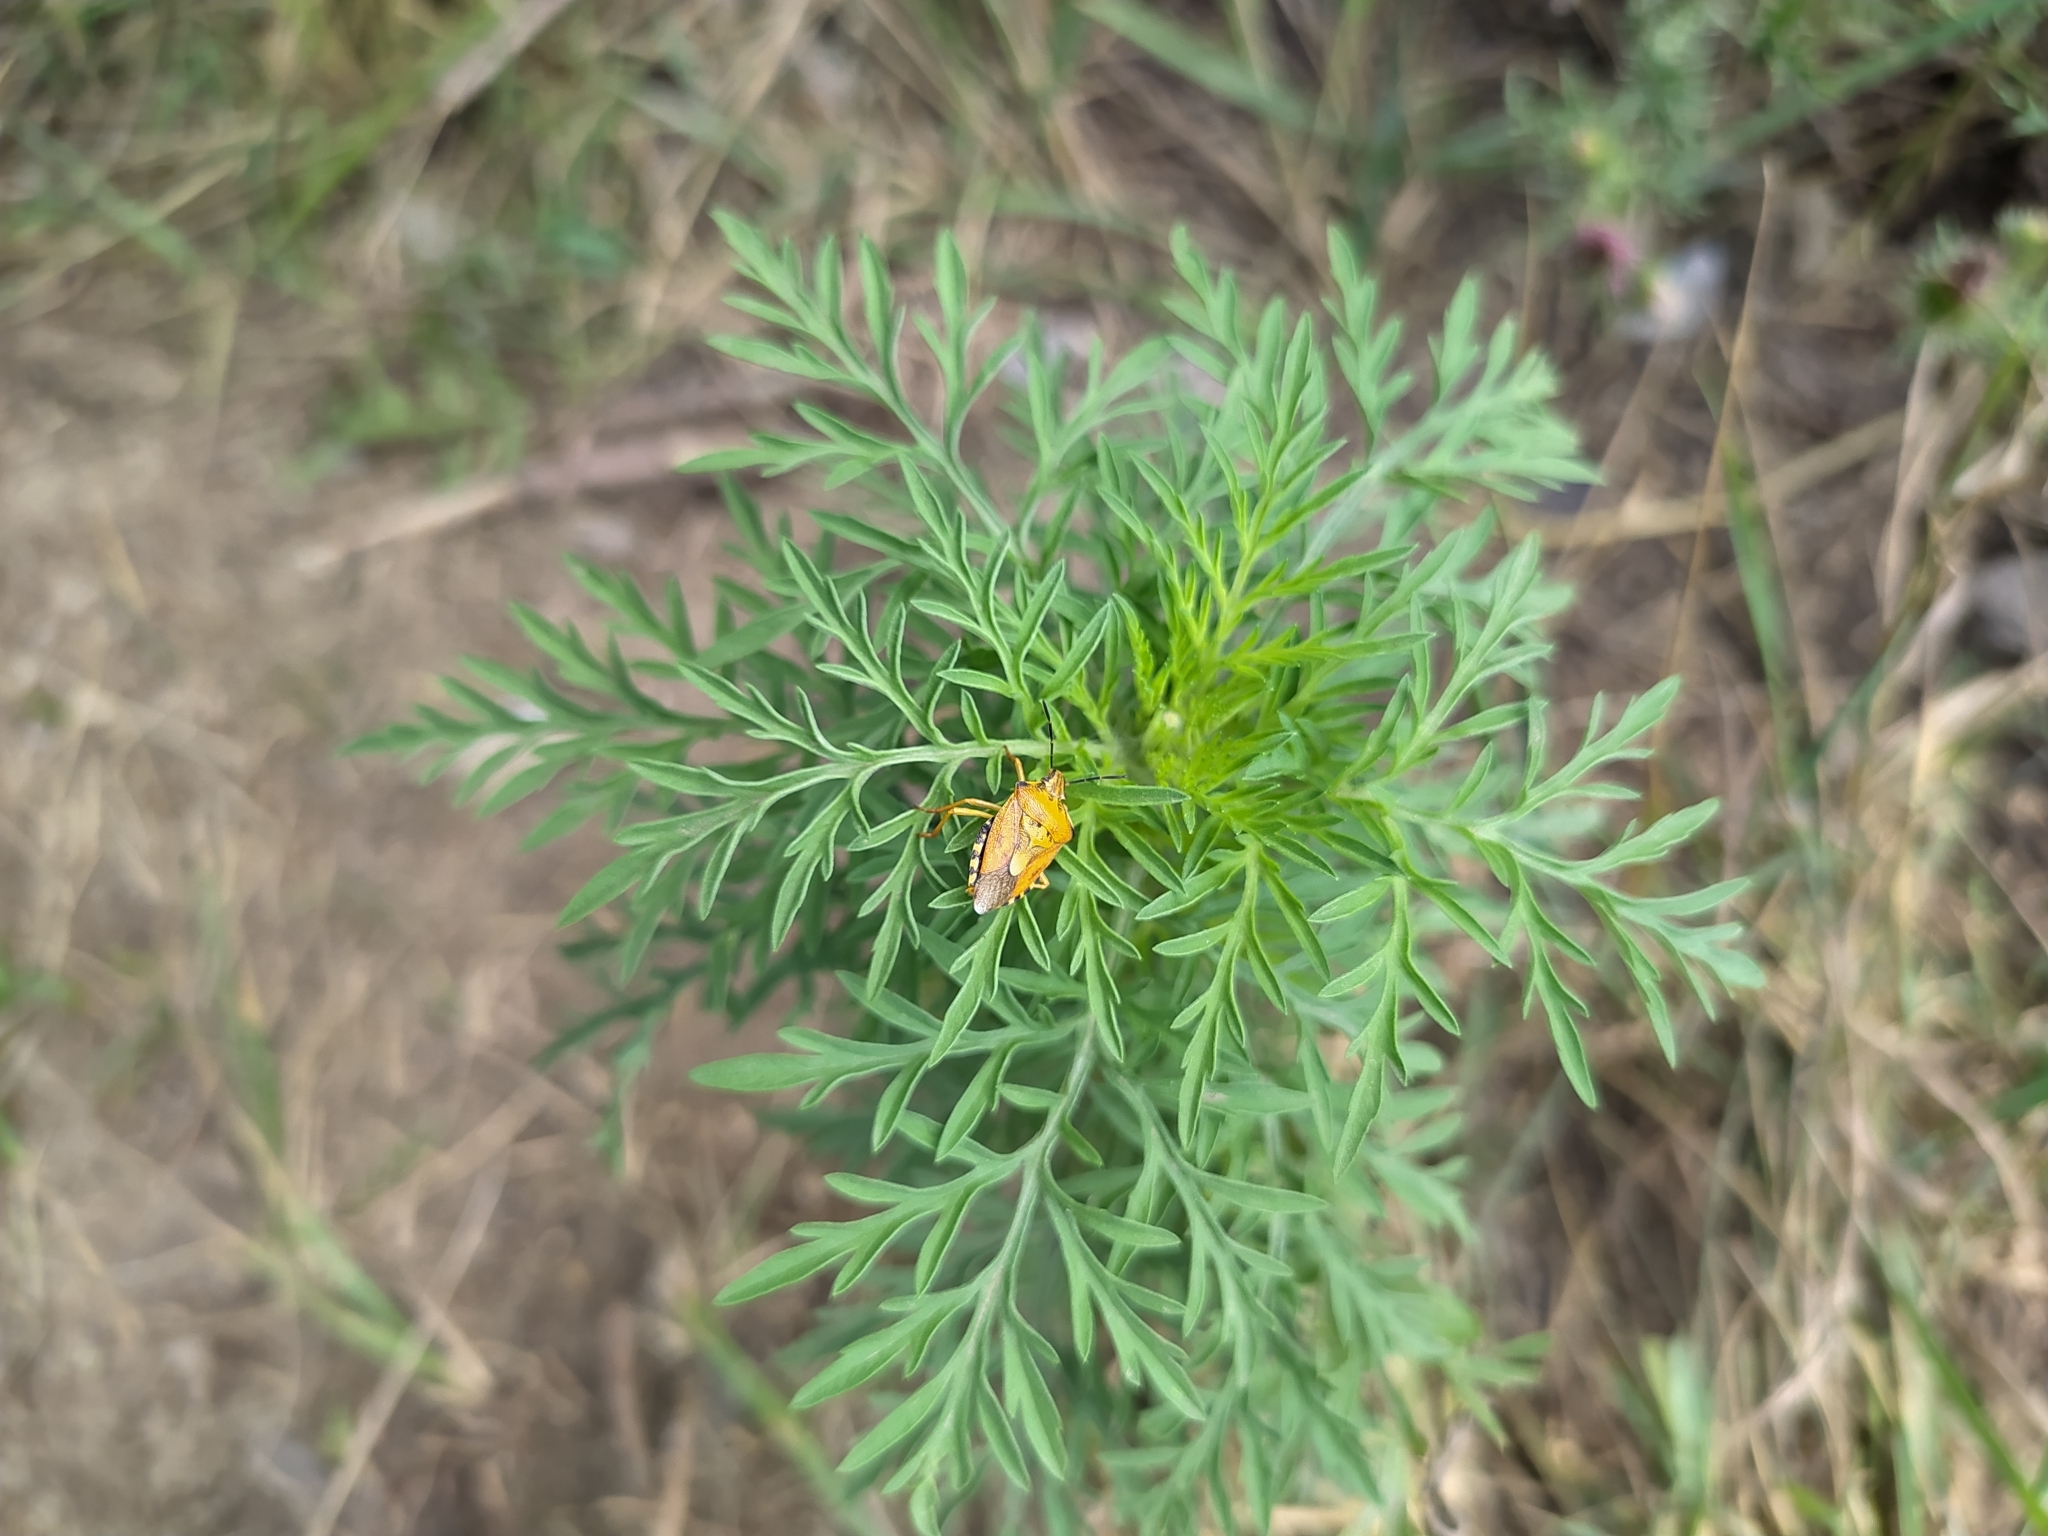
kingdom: Animalia
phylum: Arthropoda
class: Insecta
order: Hemiptera
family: Pentatomidae
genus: Carpocoris
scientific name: Carpocoris purpureipennis
